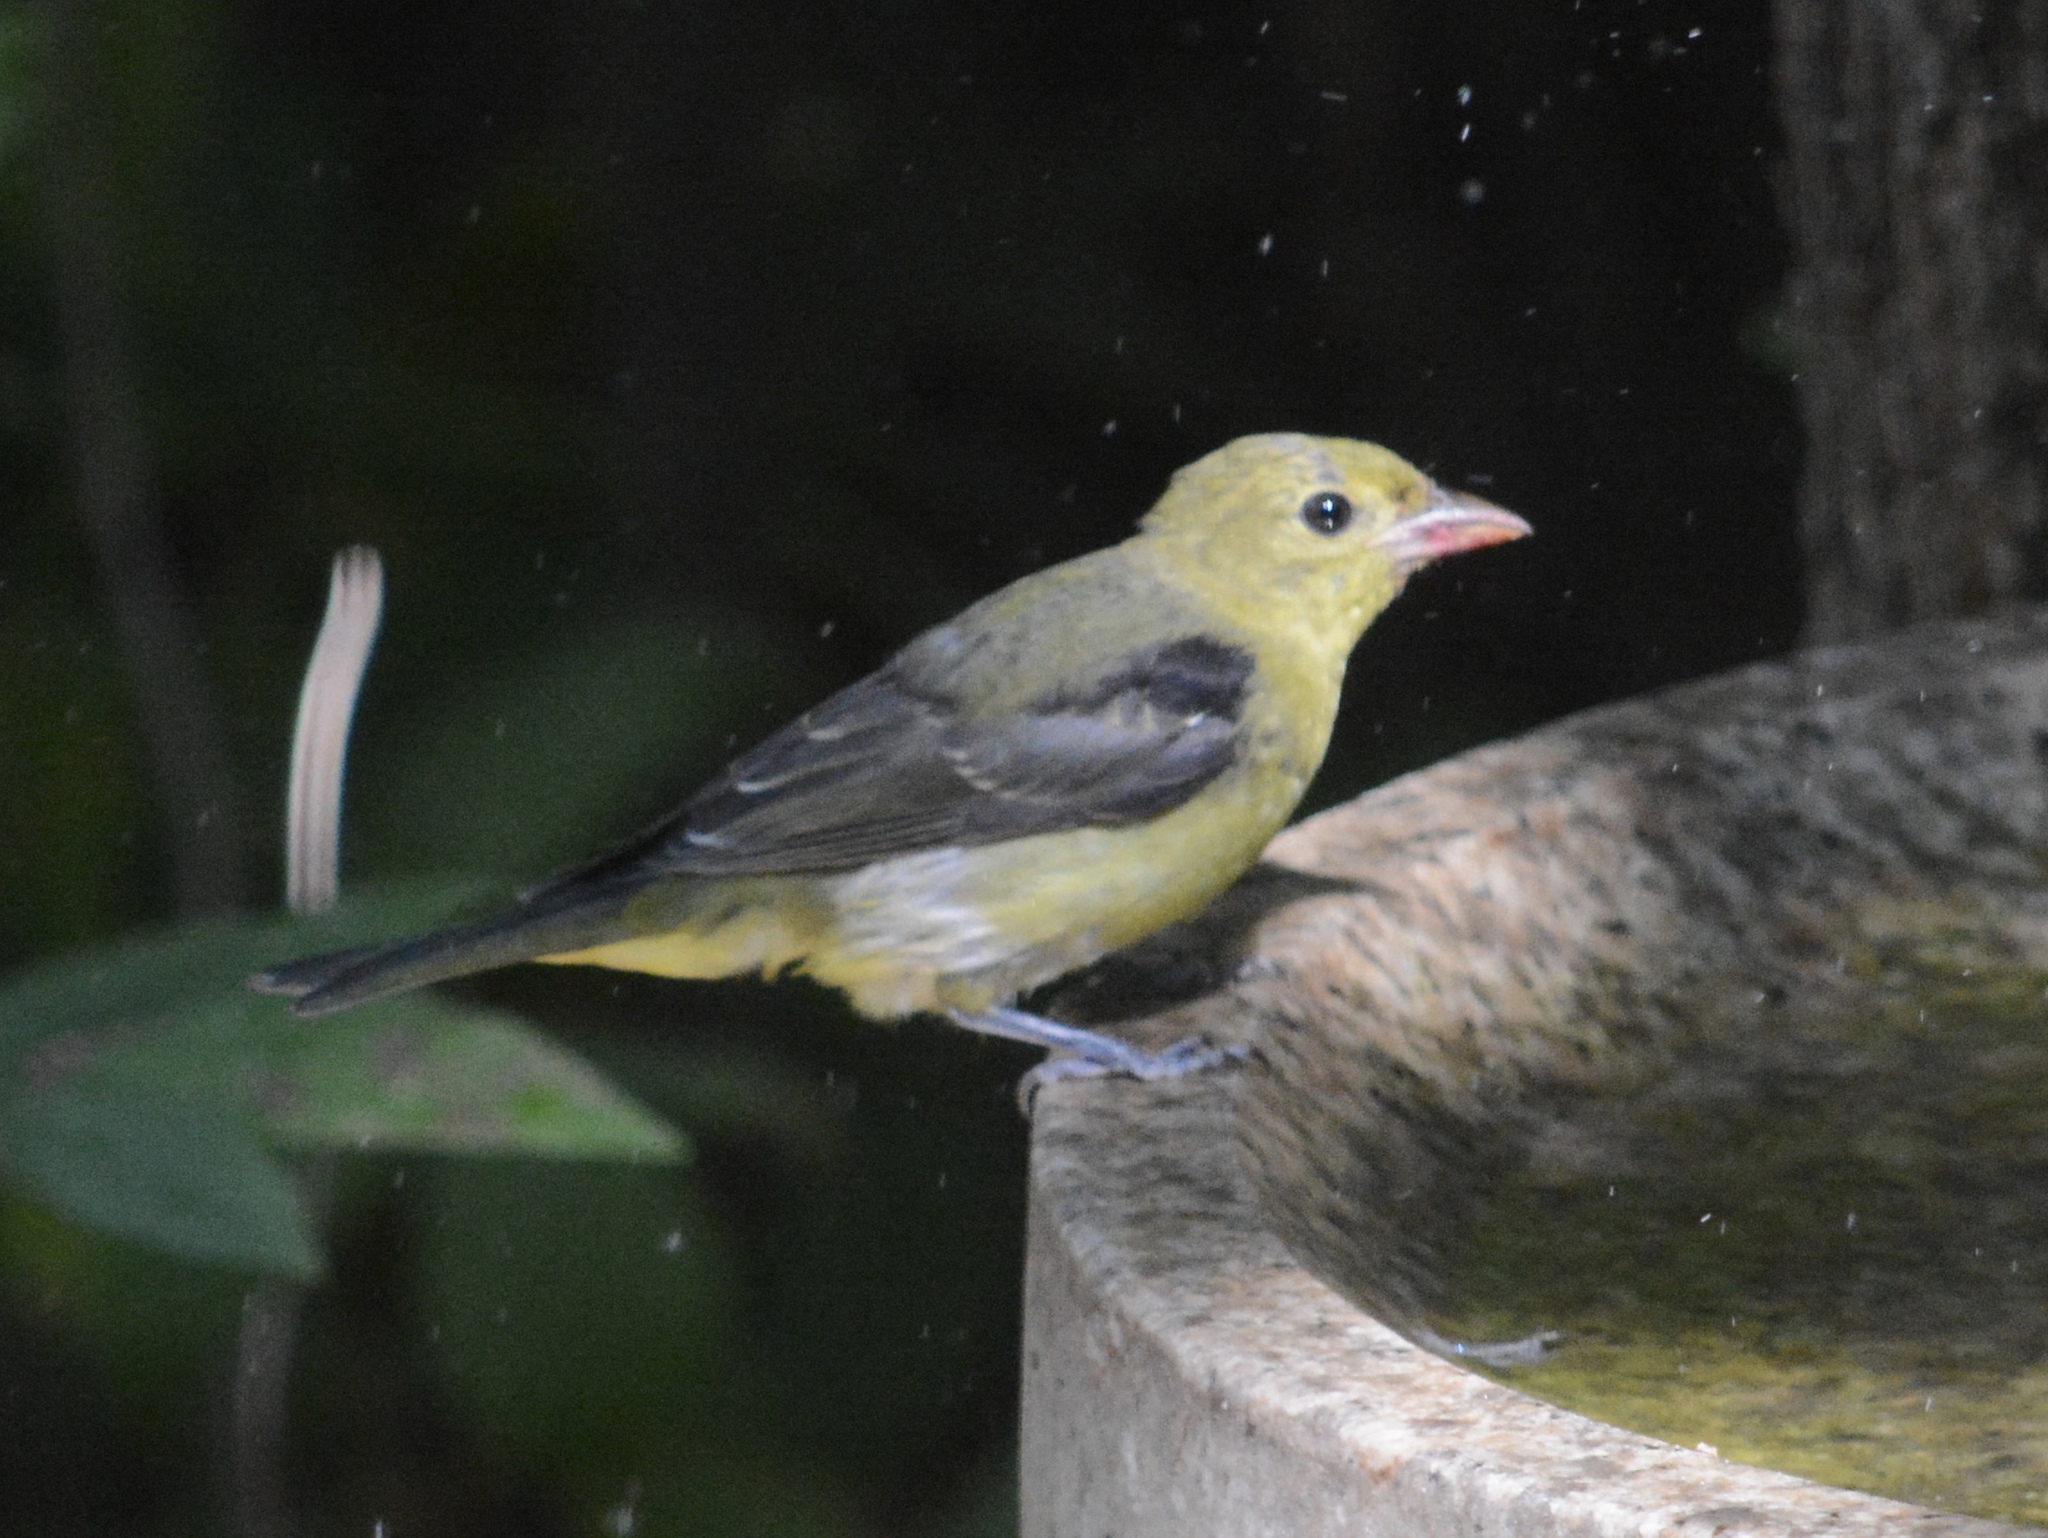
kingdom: Animalia
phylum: Chordata
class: Aves
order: Passeriformes
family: Cardinalidae
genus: Piranga
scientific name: Piranga olivacea
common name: Scarlet tanager
